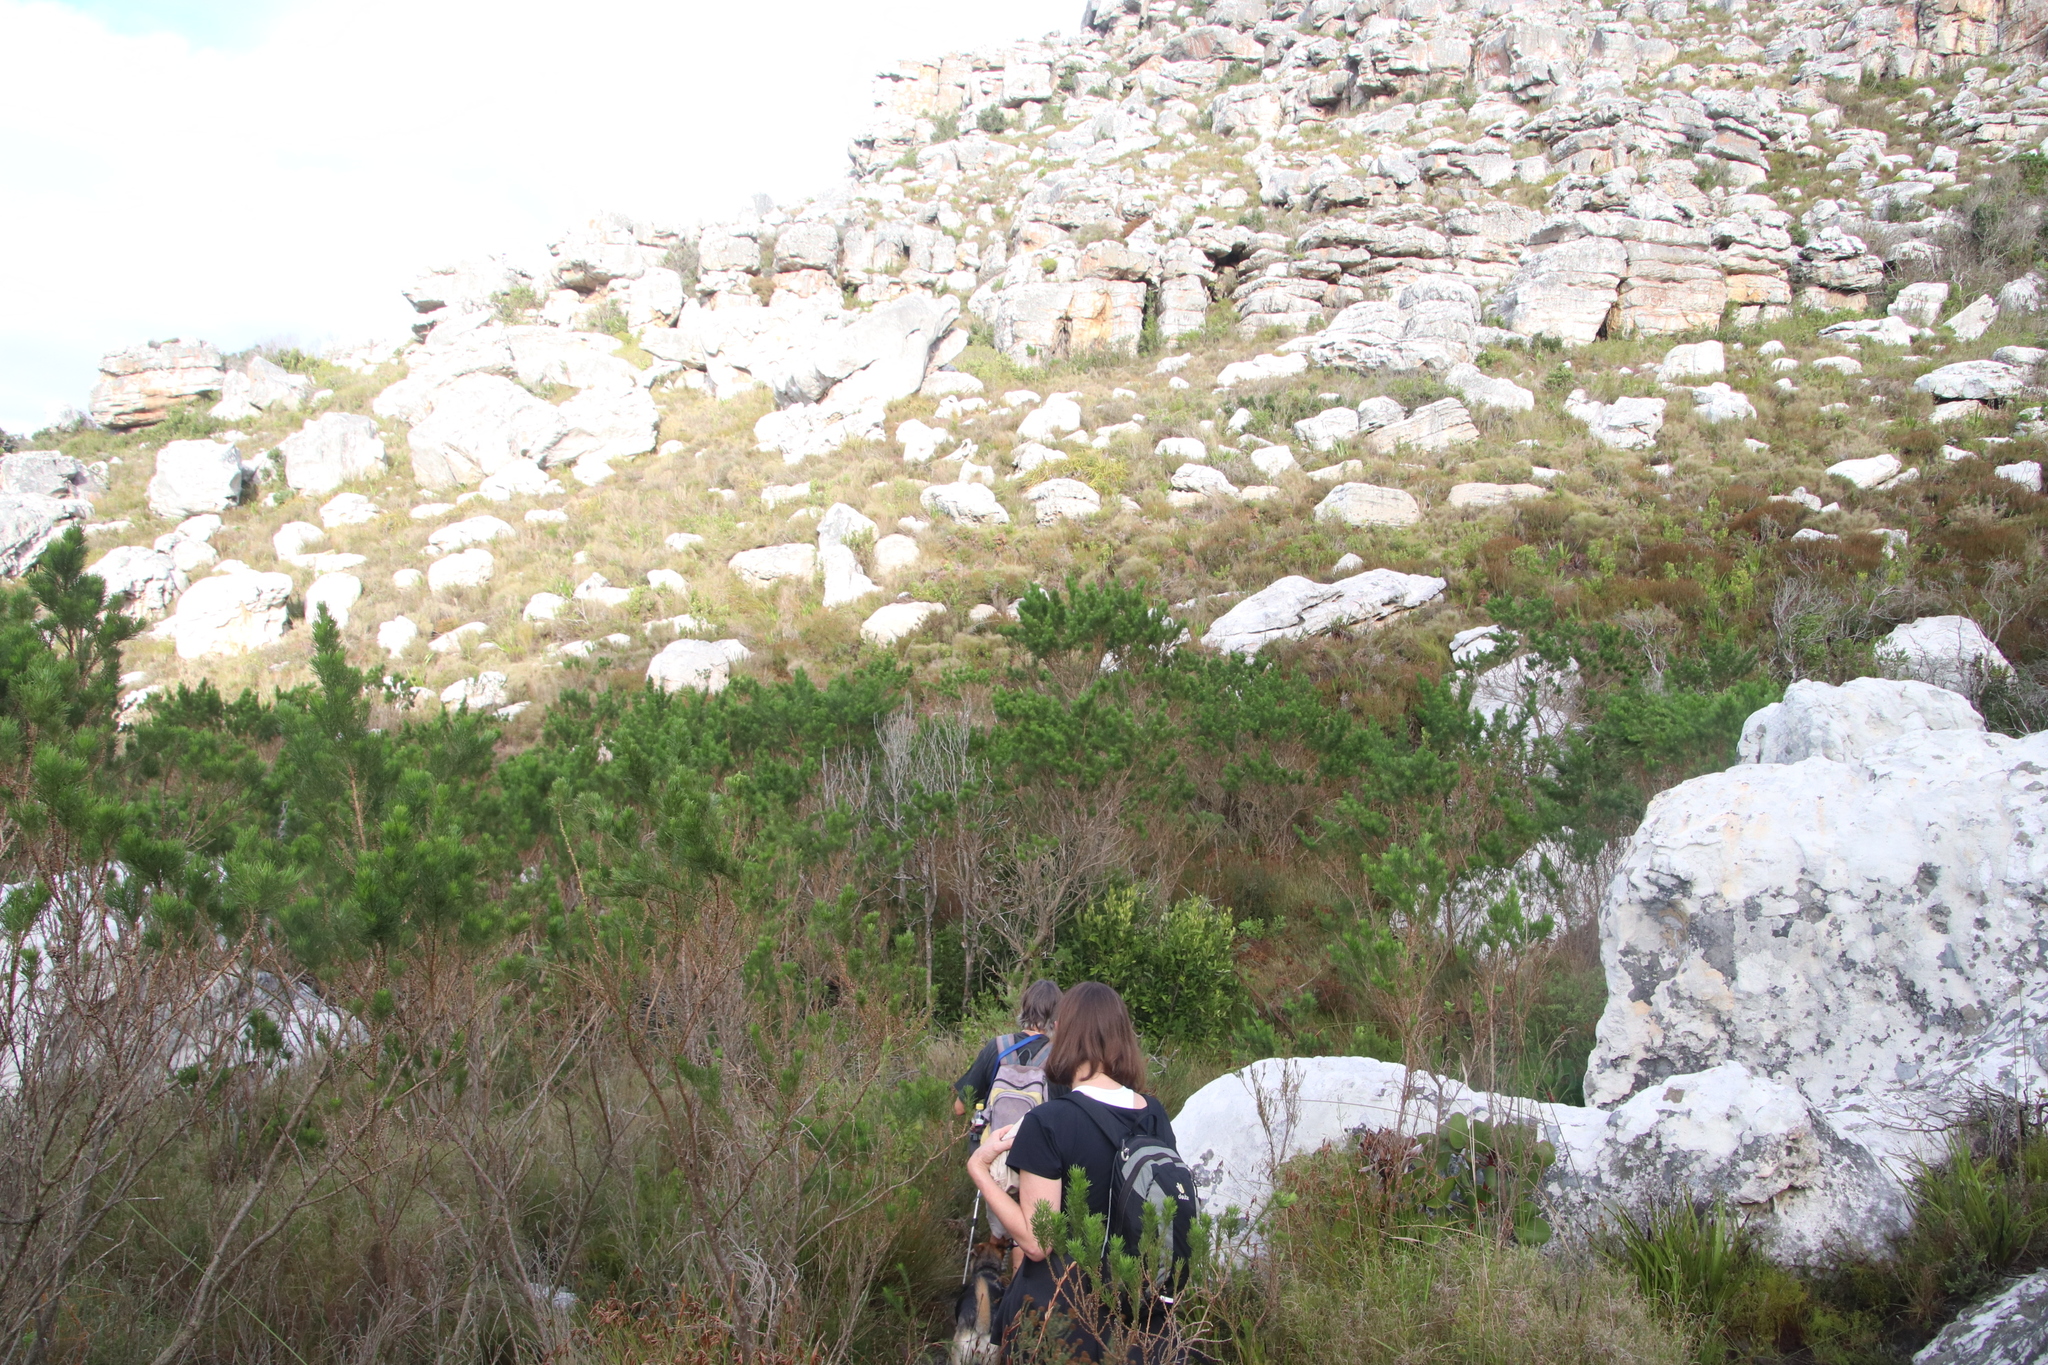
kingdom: Plantae
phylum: Tracheophyta
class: Magnoliopsida
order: Fabales
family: Fabaceae
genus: Psoralea
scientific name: Psoralea pinnata
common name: African scurfpea
